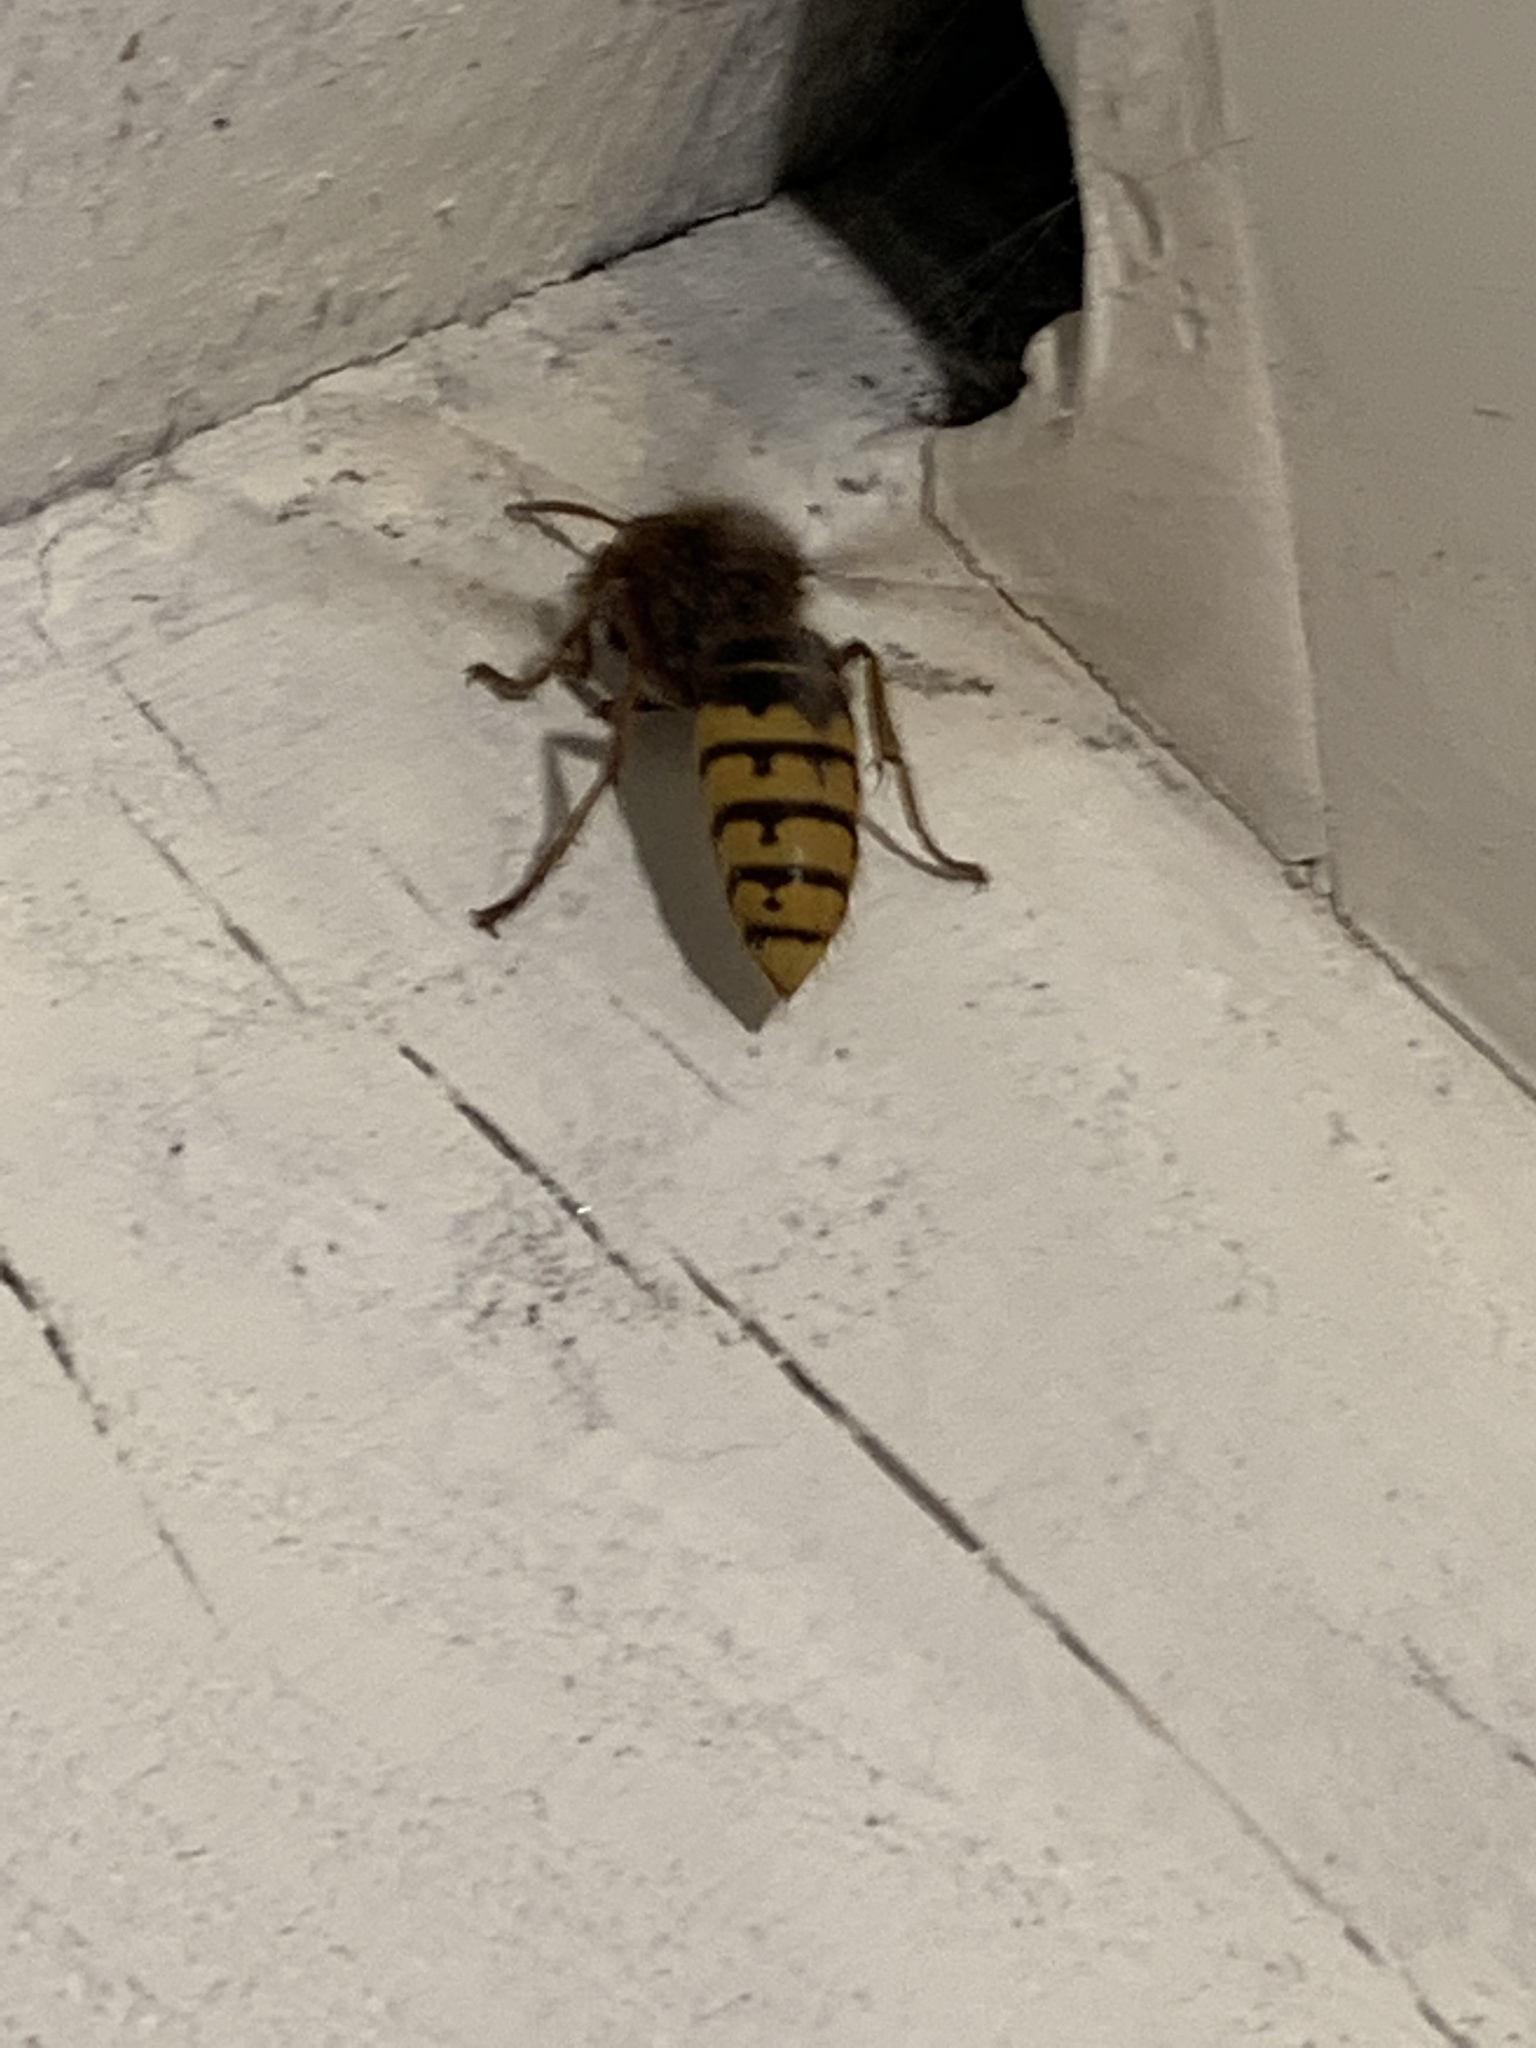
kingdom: Animalia
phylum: Arthropoda
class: Insecta
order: Hymenoptera
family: Vespidae
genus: Vespa
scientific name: Vespa crabro
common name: Hornet
